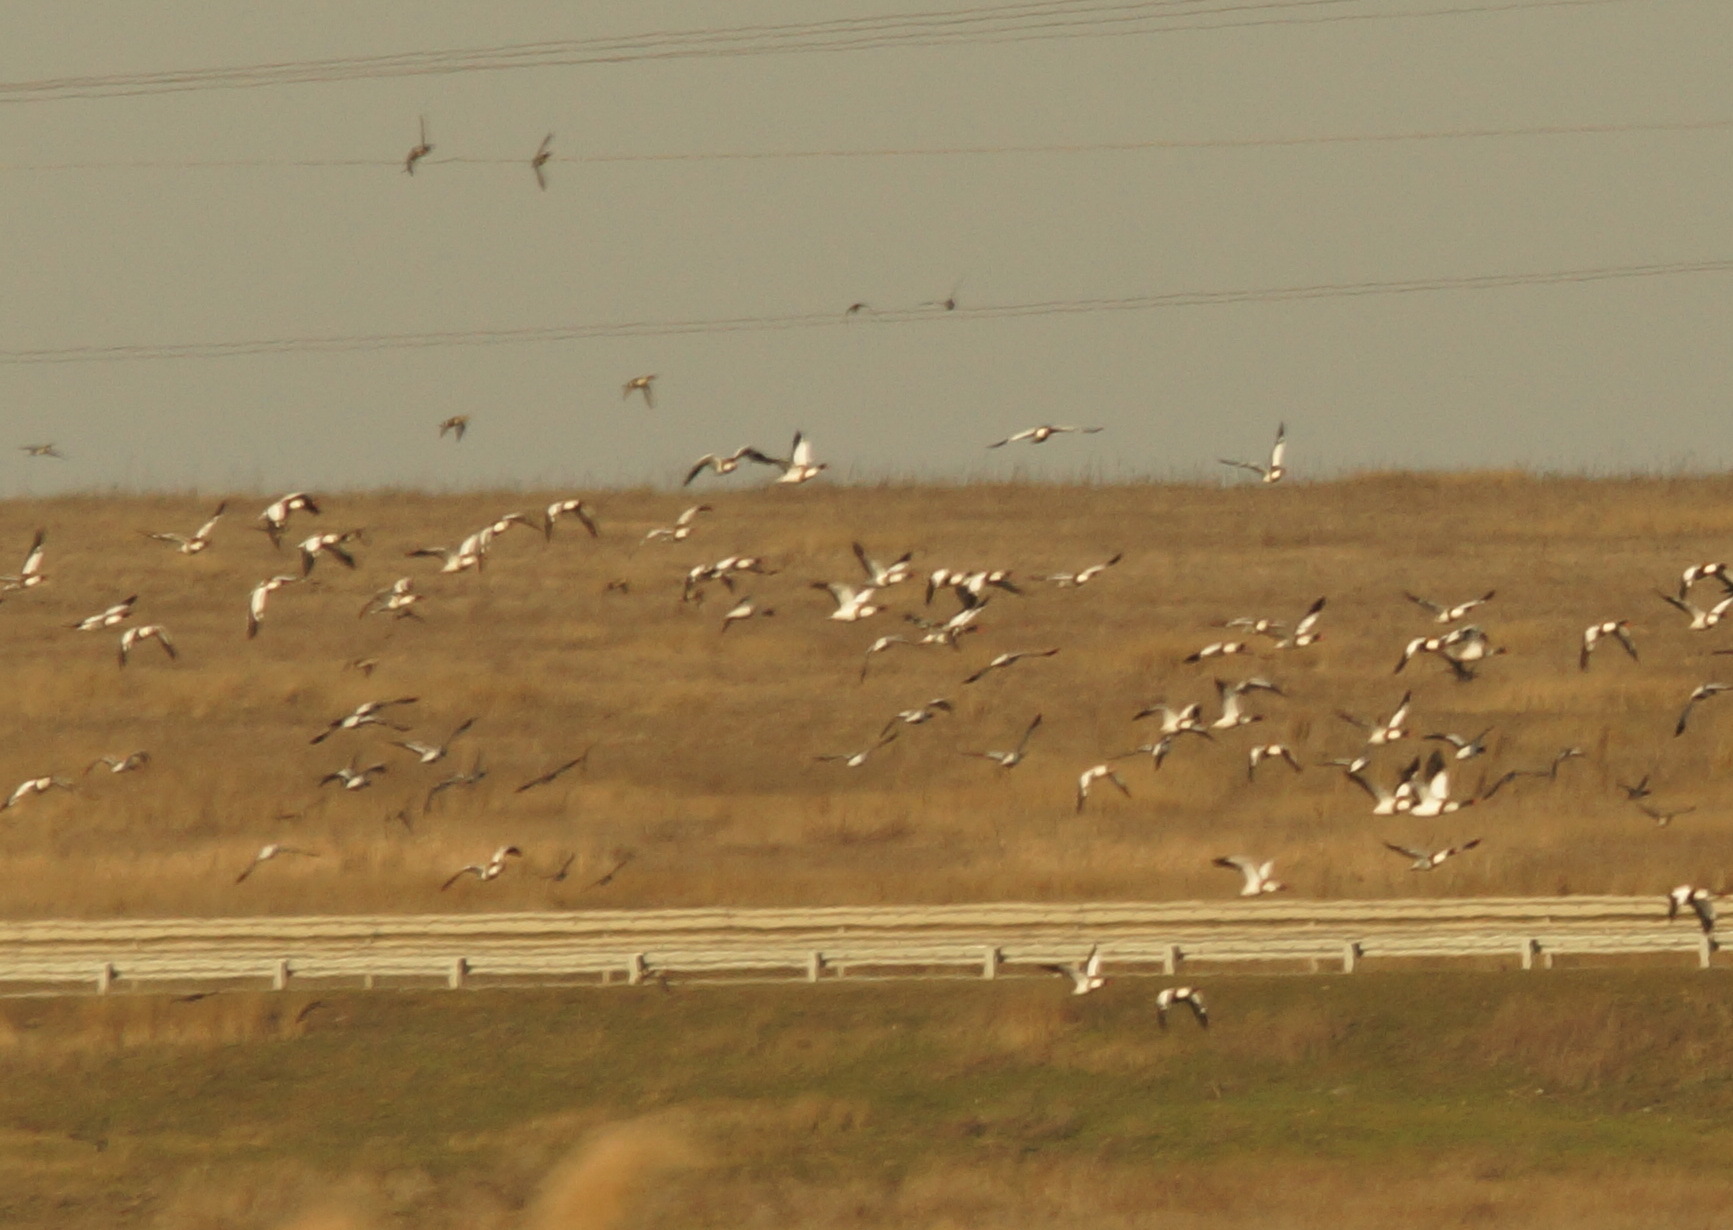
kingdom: Animalia
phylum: Chordata
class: Aves
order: Anseriformes
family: Anatidae
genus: Tadorna
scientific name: Tadorna tadorna
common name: Common shelduck
